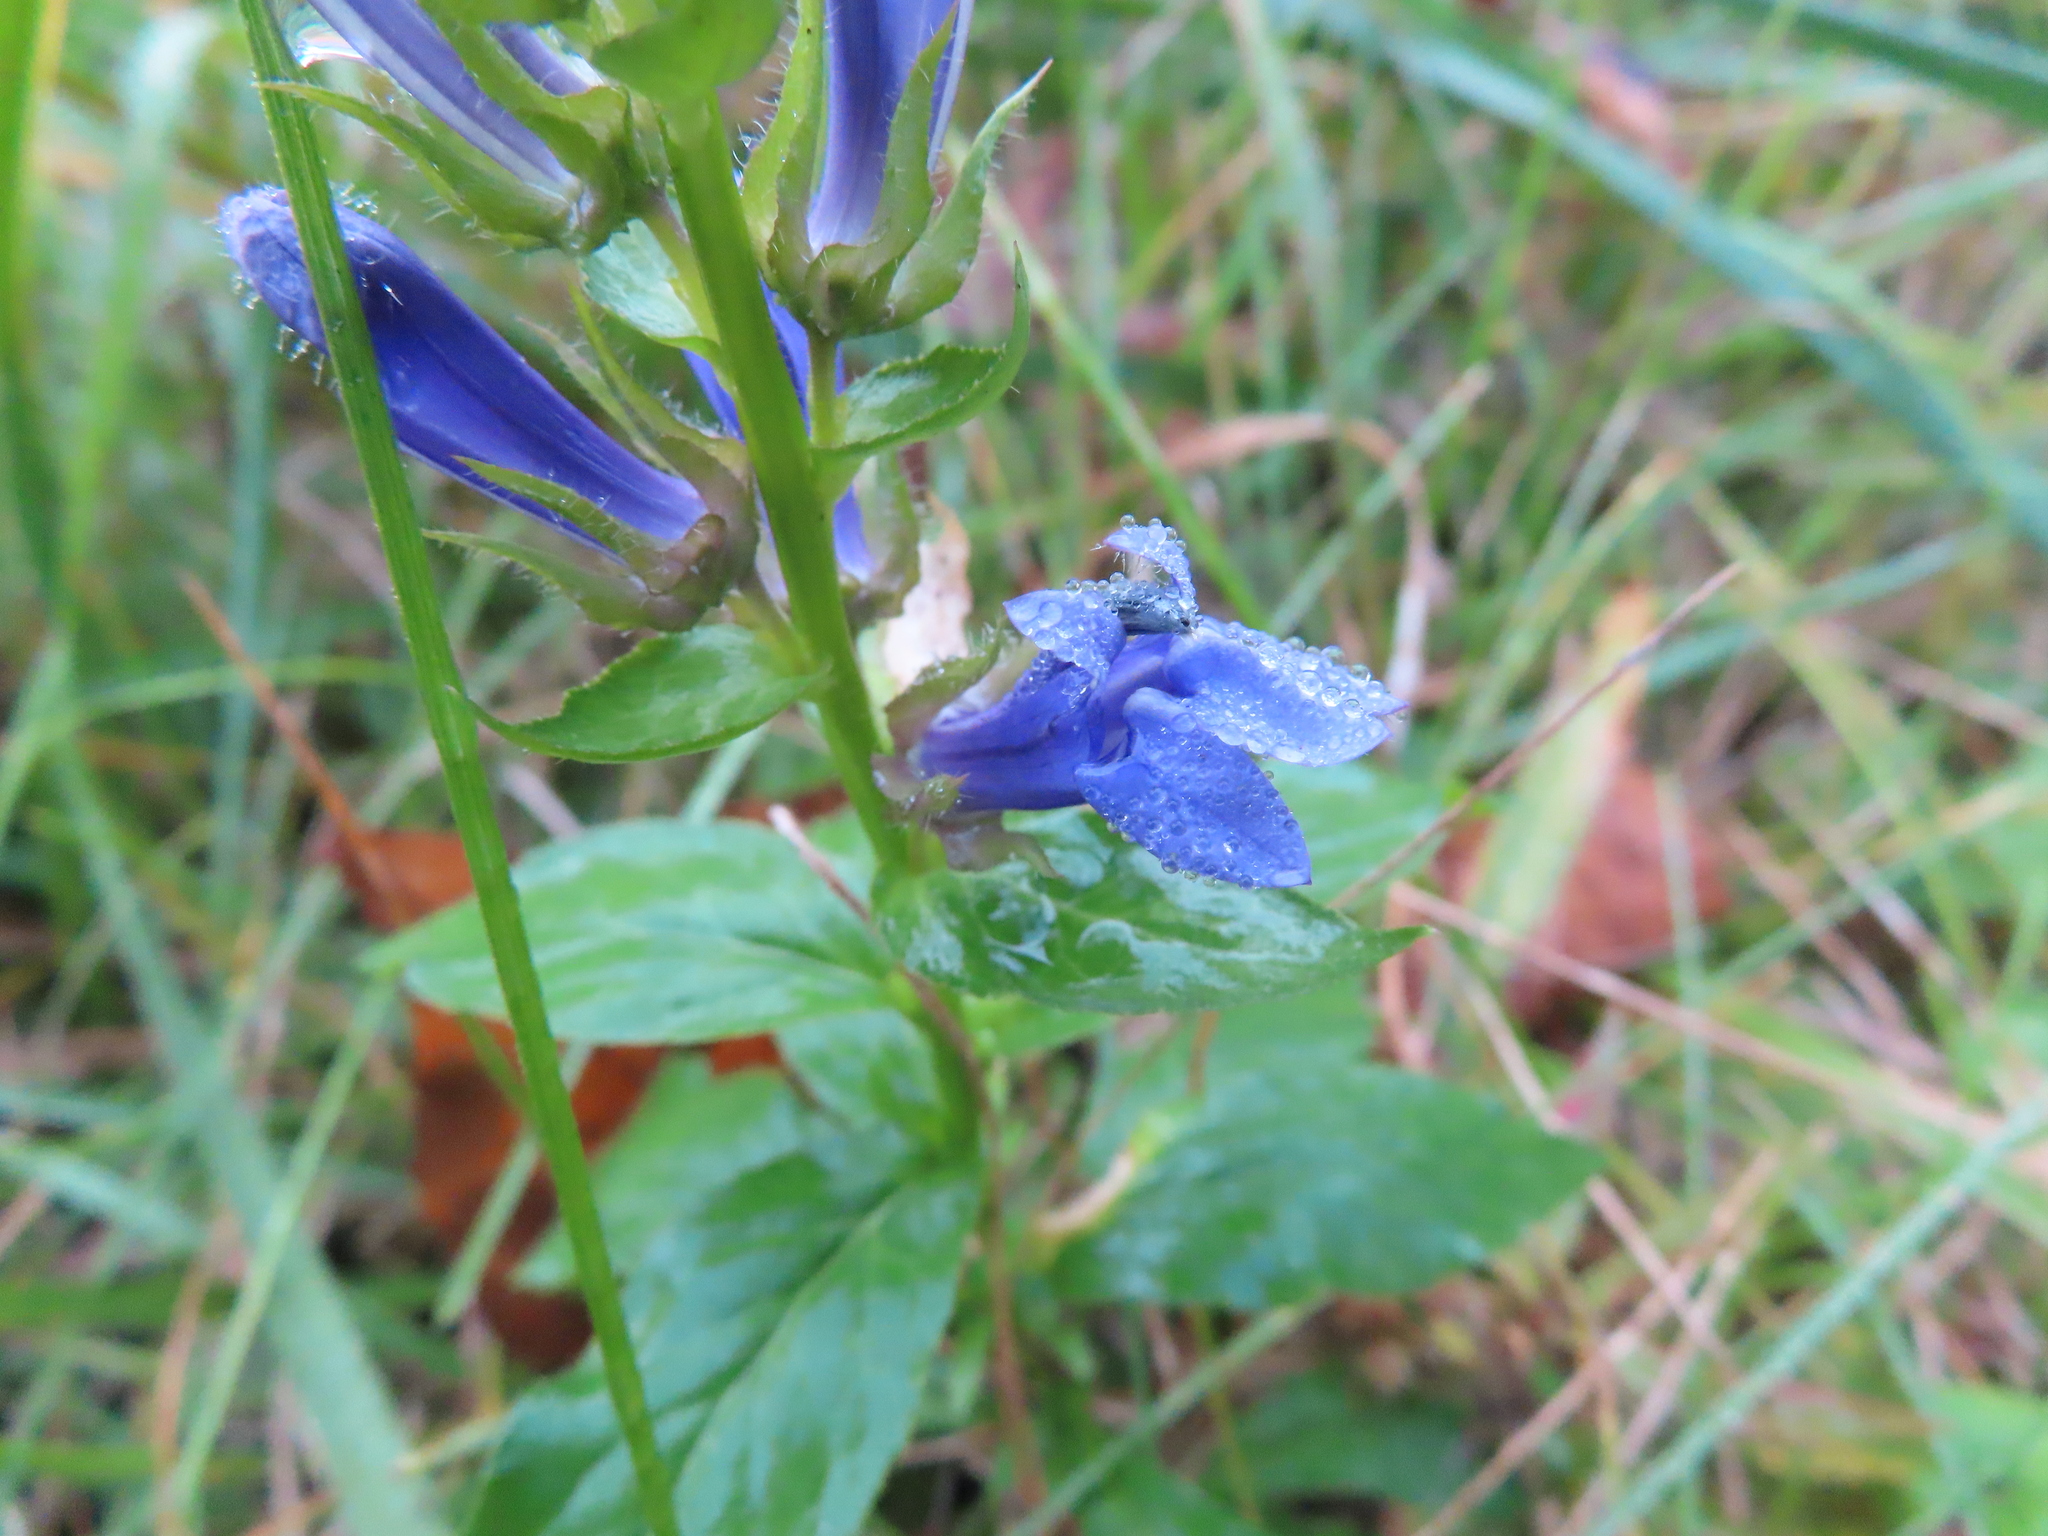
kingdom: Plantae
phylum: Tracheophyta
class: Magnoliopsida
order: Asterales
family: Campanulaceae
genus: Lobelia
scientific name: Lobelia siphilitica
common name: Great lobelia
